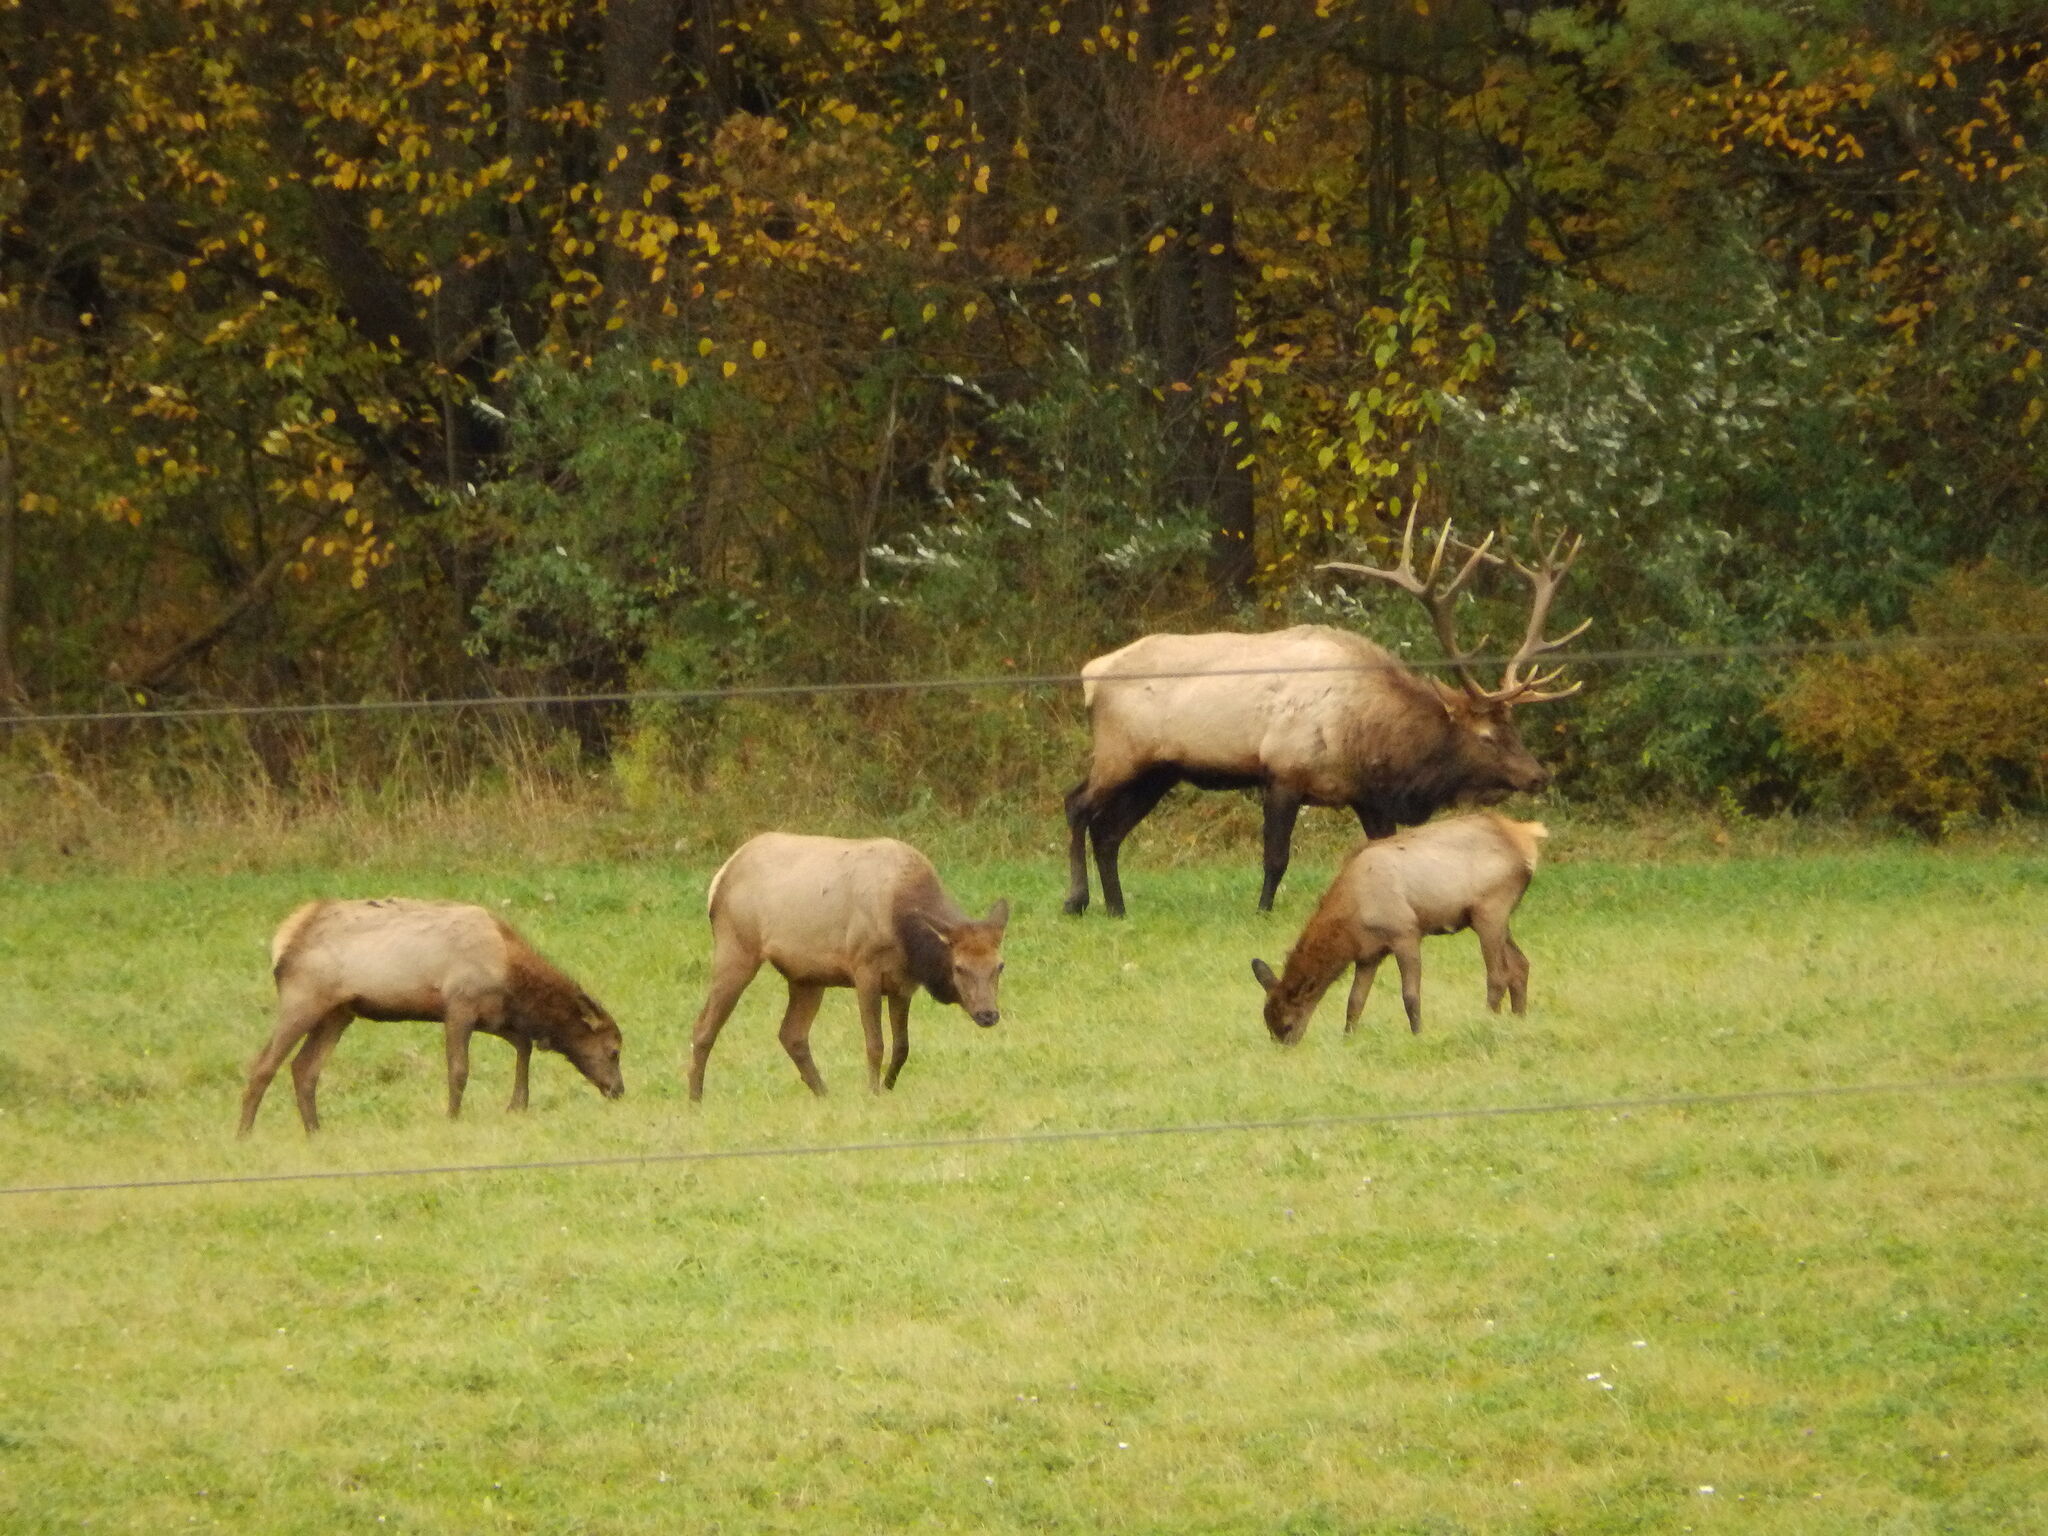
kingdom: Animalia
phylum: Chordata
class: Mammalia
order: Artiodactyla
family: Cervidae
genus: Cervus
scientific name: Cervus elaphus
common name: Red deer
